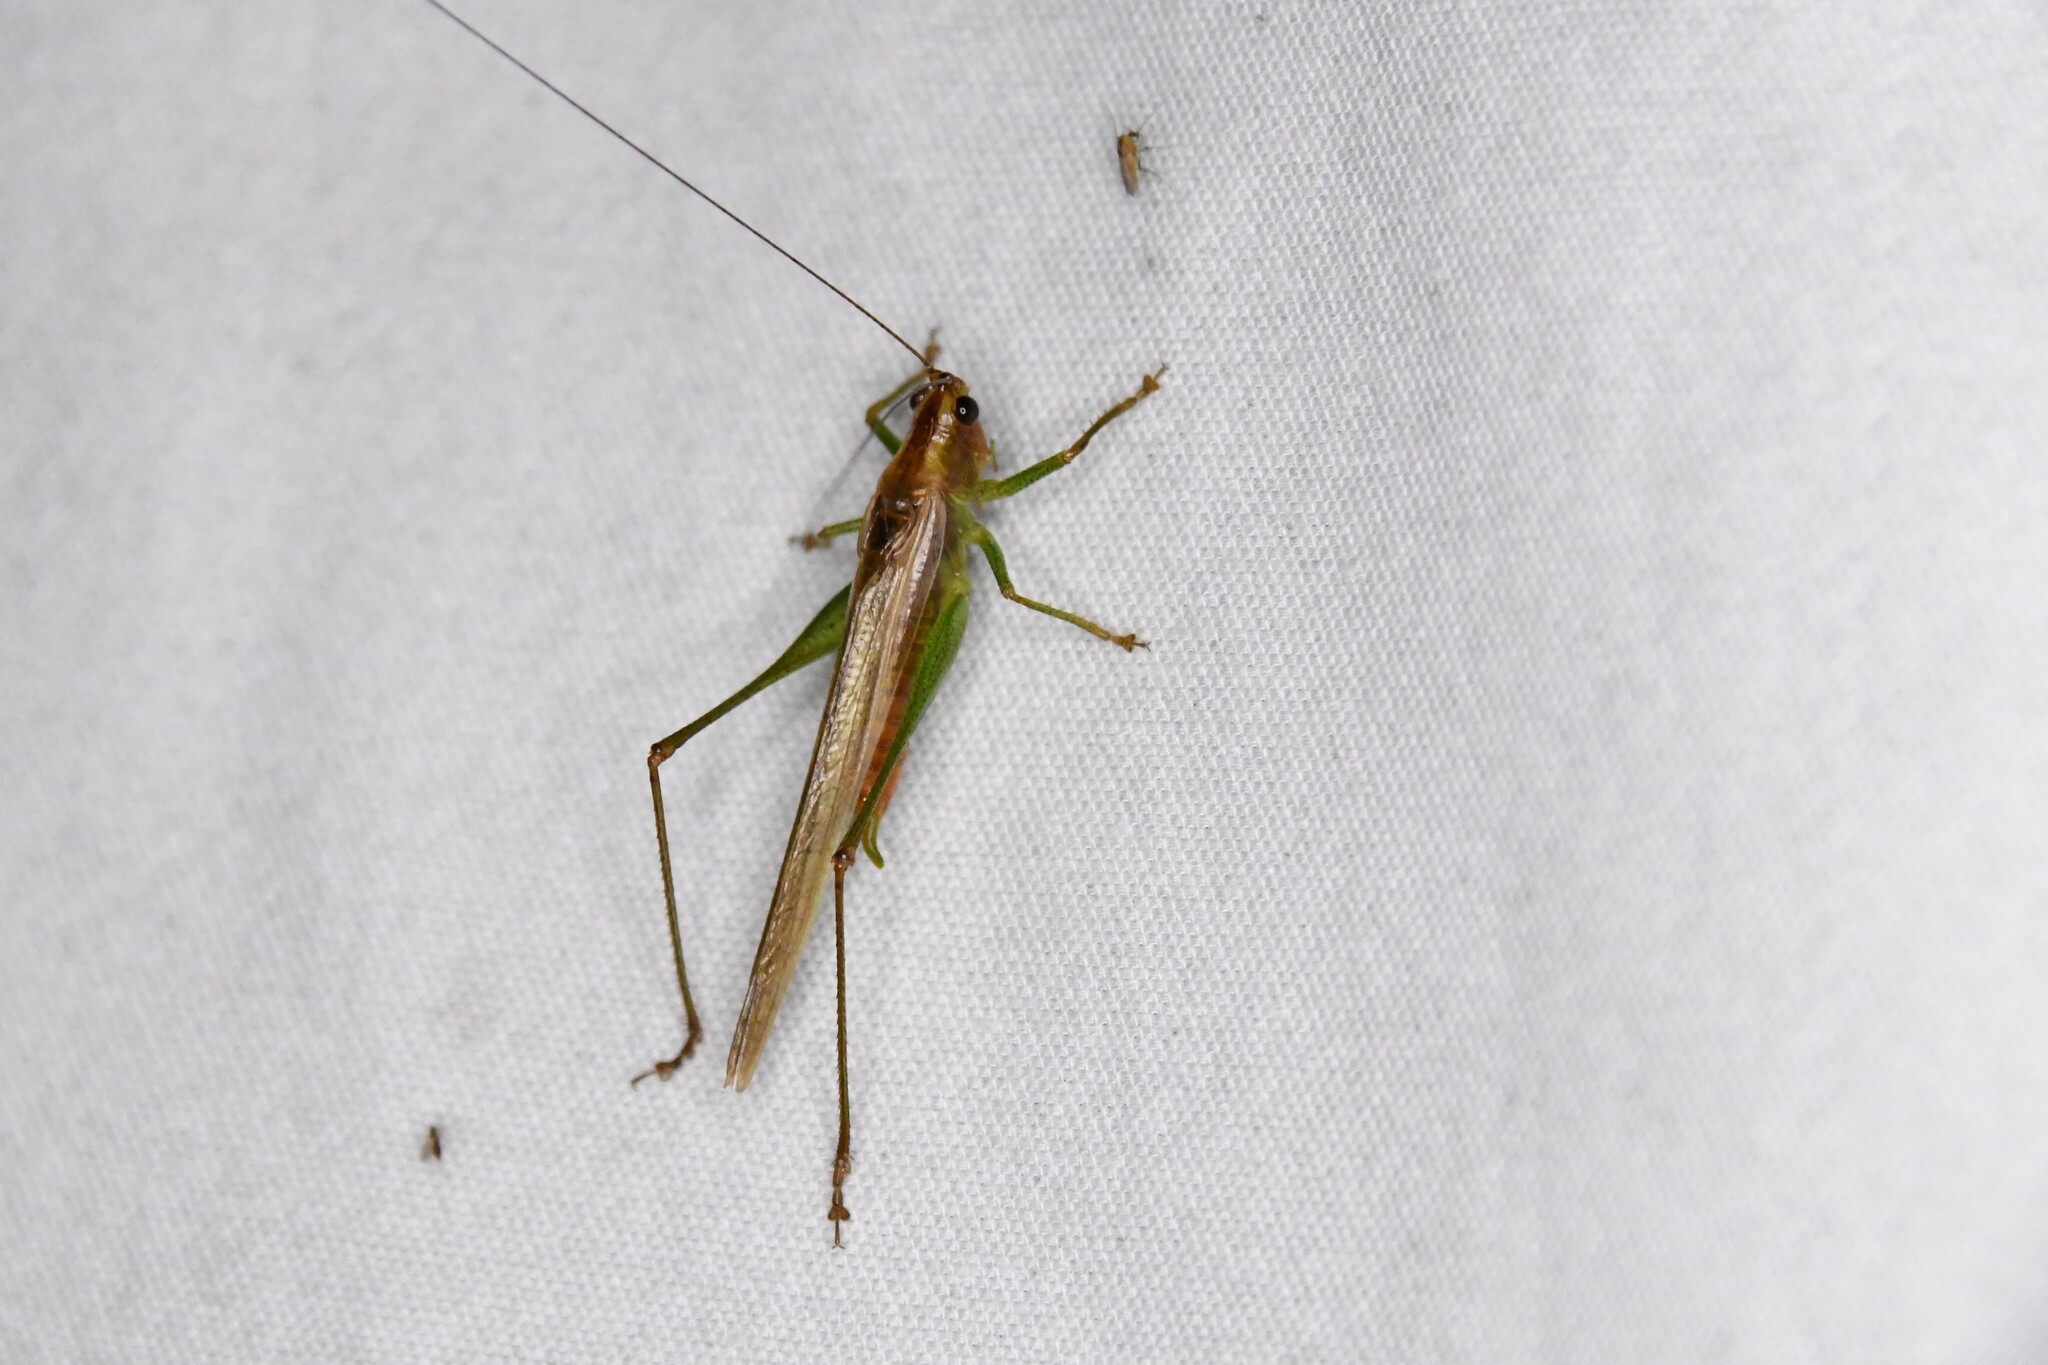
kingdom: Animalia
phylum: Arthropoda
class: Insecta
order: Orthoptera
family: Tettigoniidae
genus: Conocephalus
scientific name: Conocephalus attenuatus
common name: Long-tailed meadow katydid
